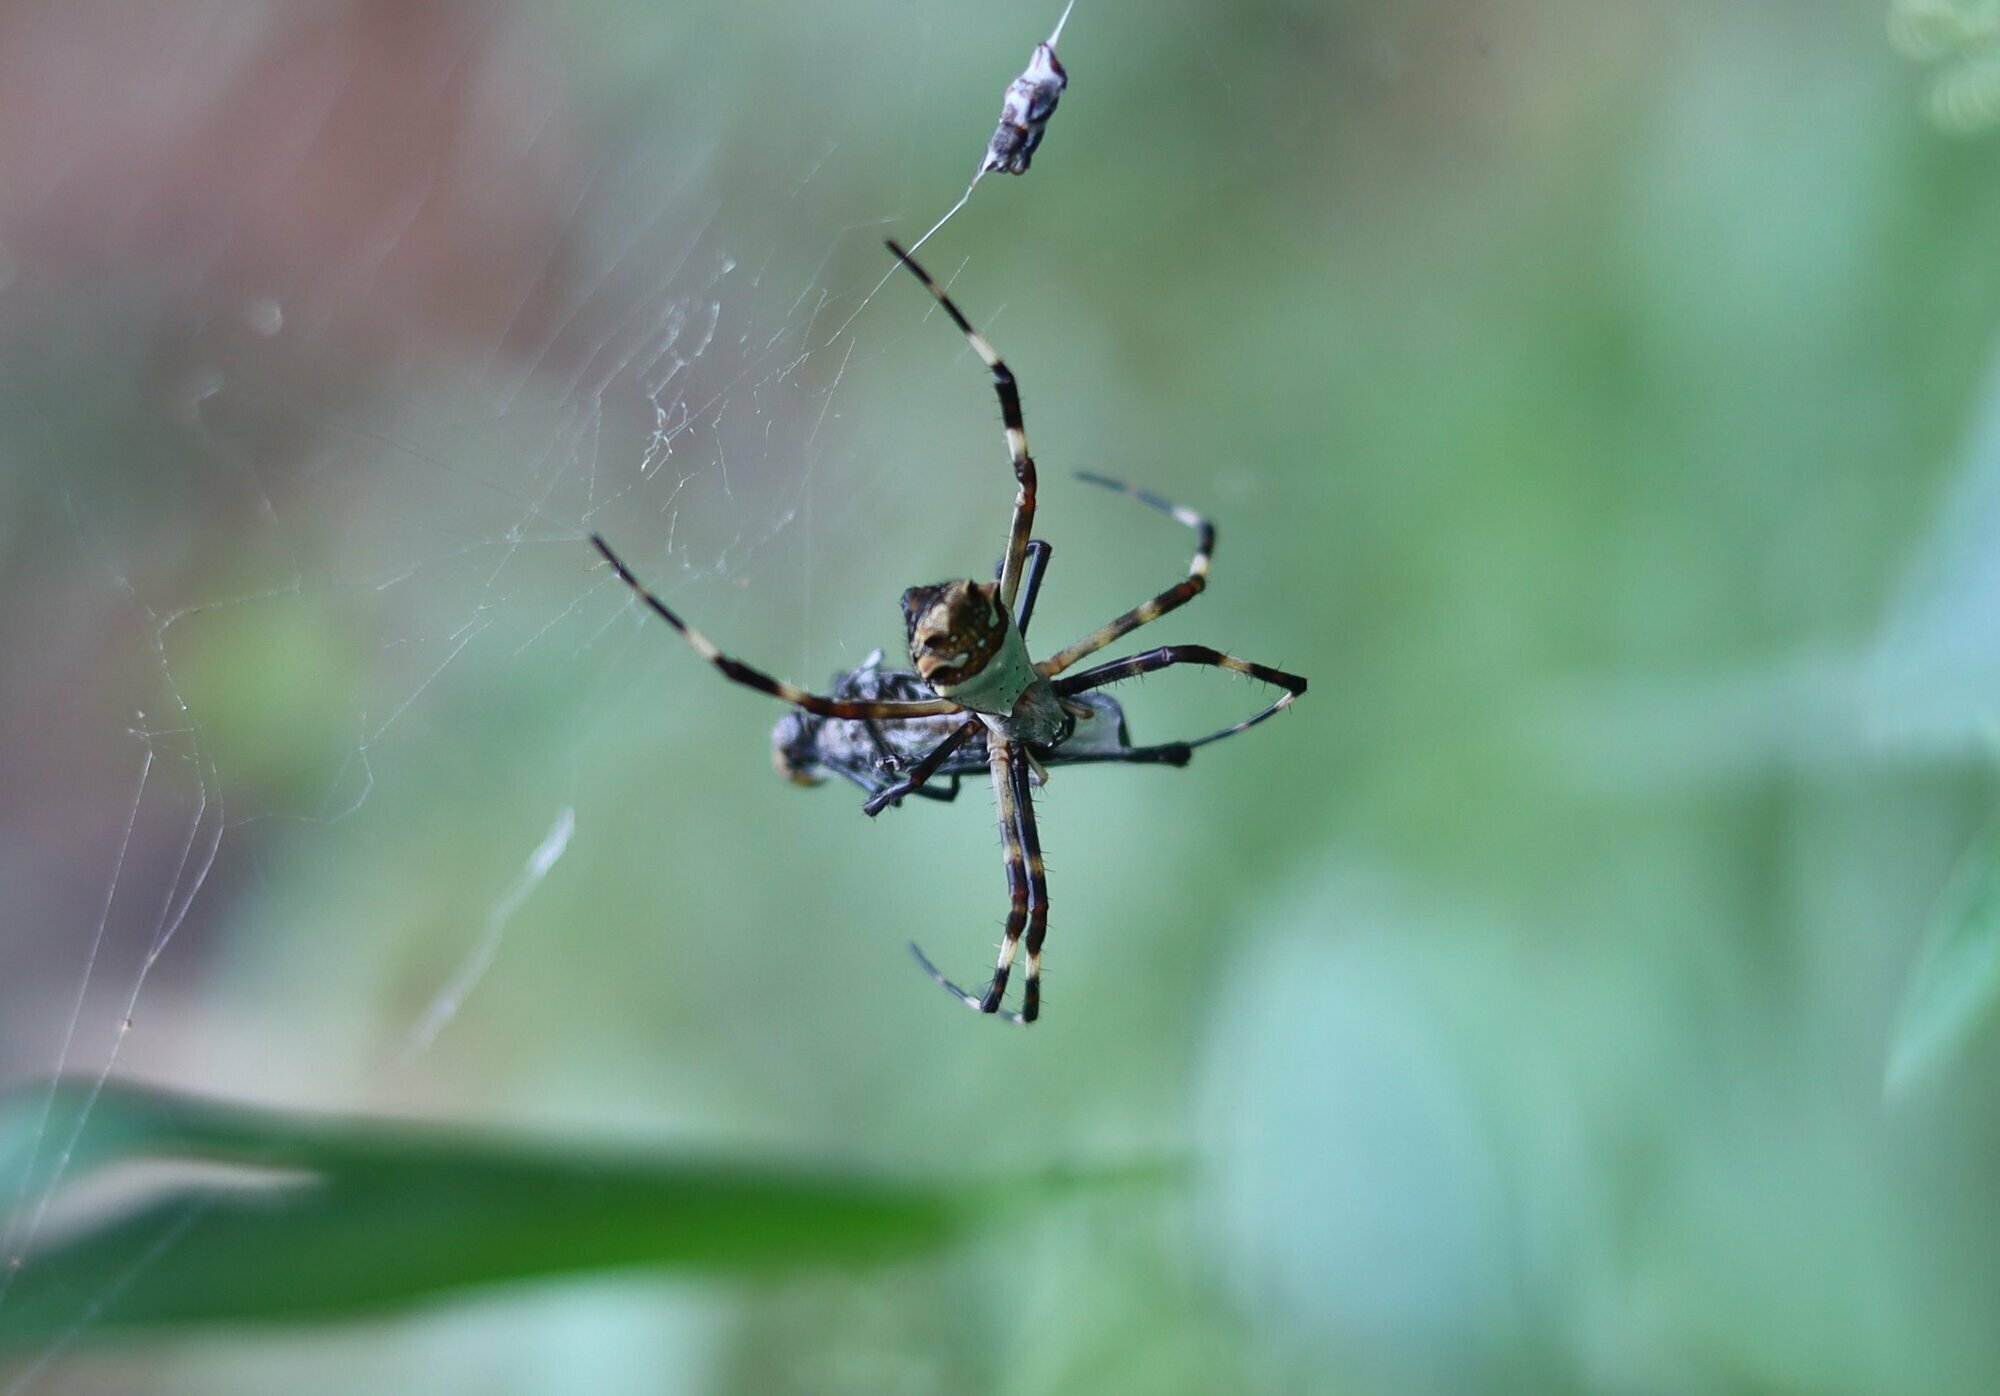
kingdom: Animalia
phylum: Arthropoda
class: Arachnida
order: Araneae
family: Araneidae
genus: Argiope
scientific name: Argiope argentata
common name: Orb weavers
